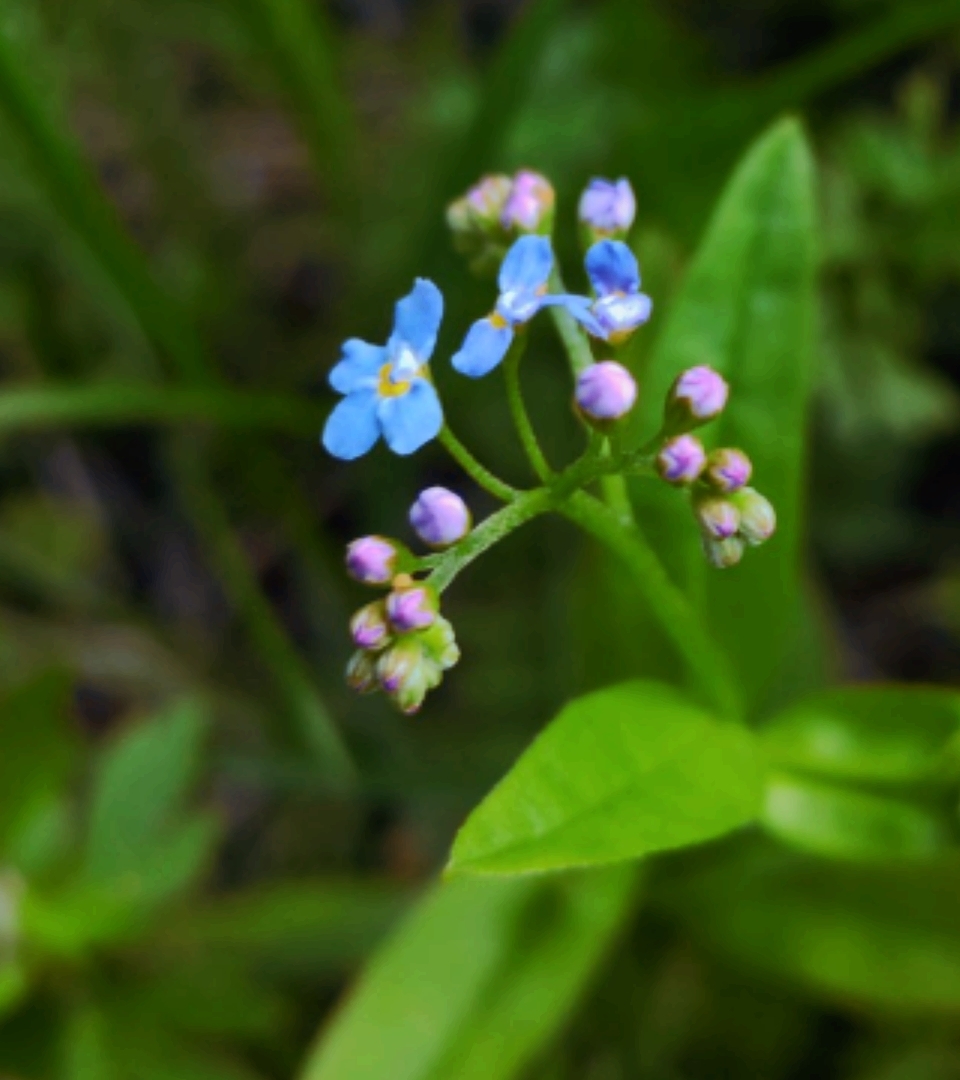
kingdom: Plantae
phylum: Tracheophyta
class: Magnoliopsida
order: Boraginales
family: Boraginaceae
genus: Myosotis
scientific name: Myosotis scorpioides
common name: Water forget-me-not
